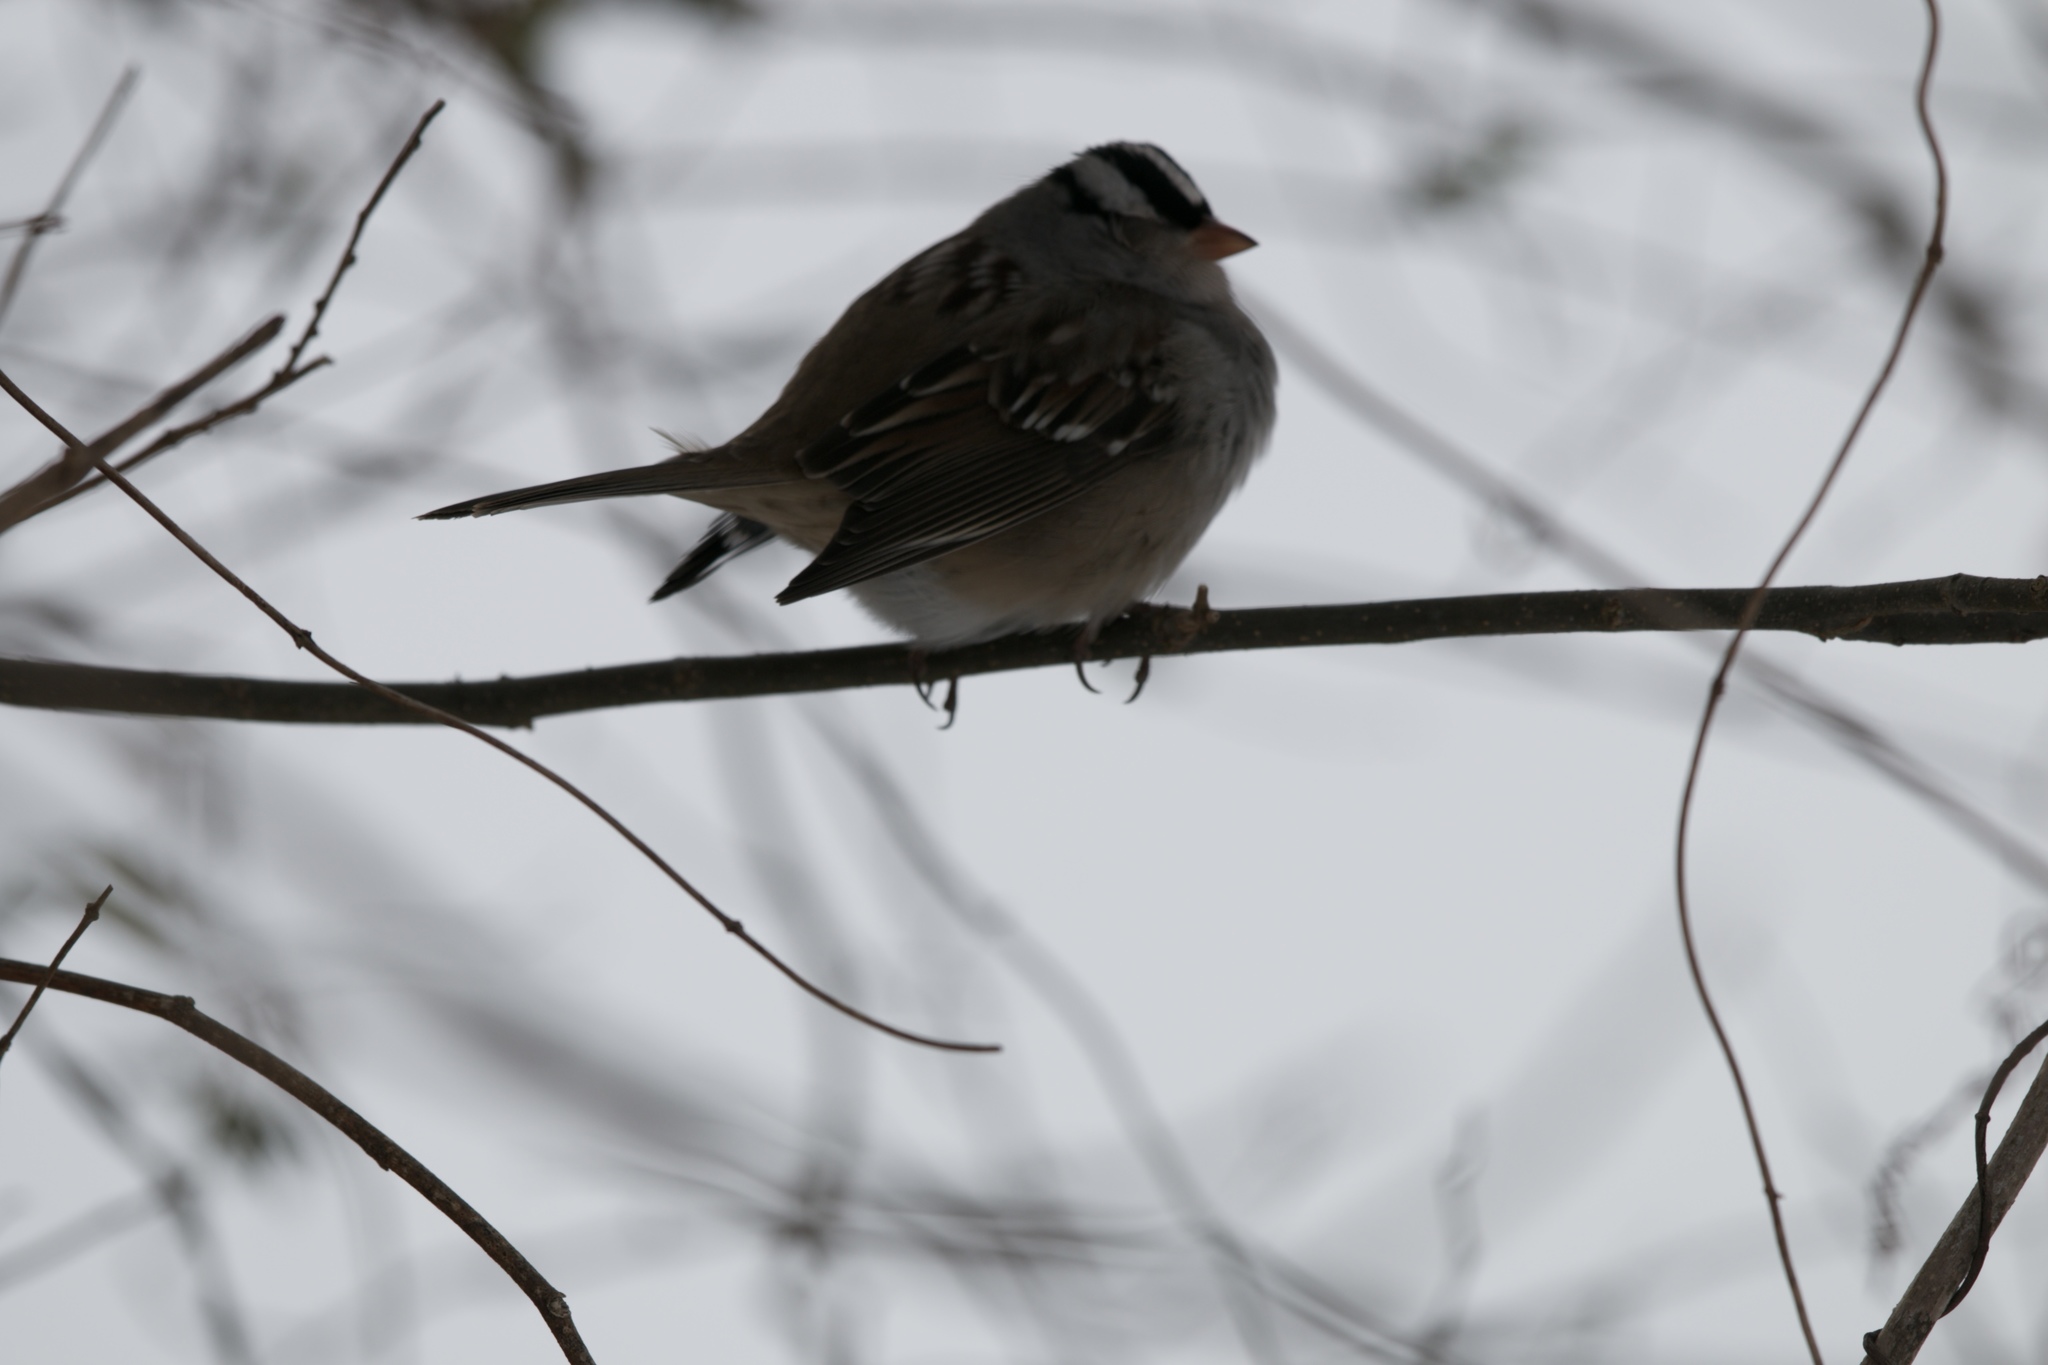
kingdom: Animalia
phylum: Chordata
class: Aves
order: Passeriformes
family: Passerellidae
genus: Zonotrichia
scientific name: Zonotrichia leucophrys
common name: White-crowned sparrow
